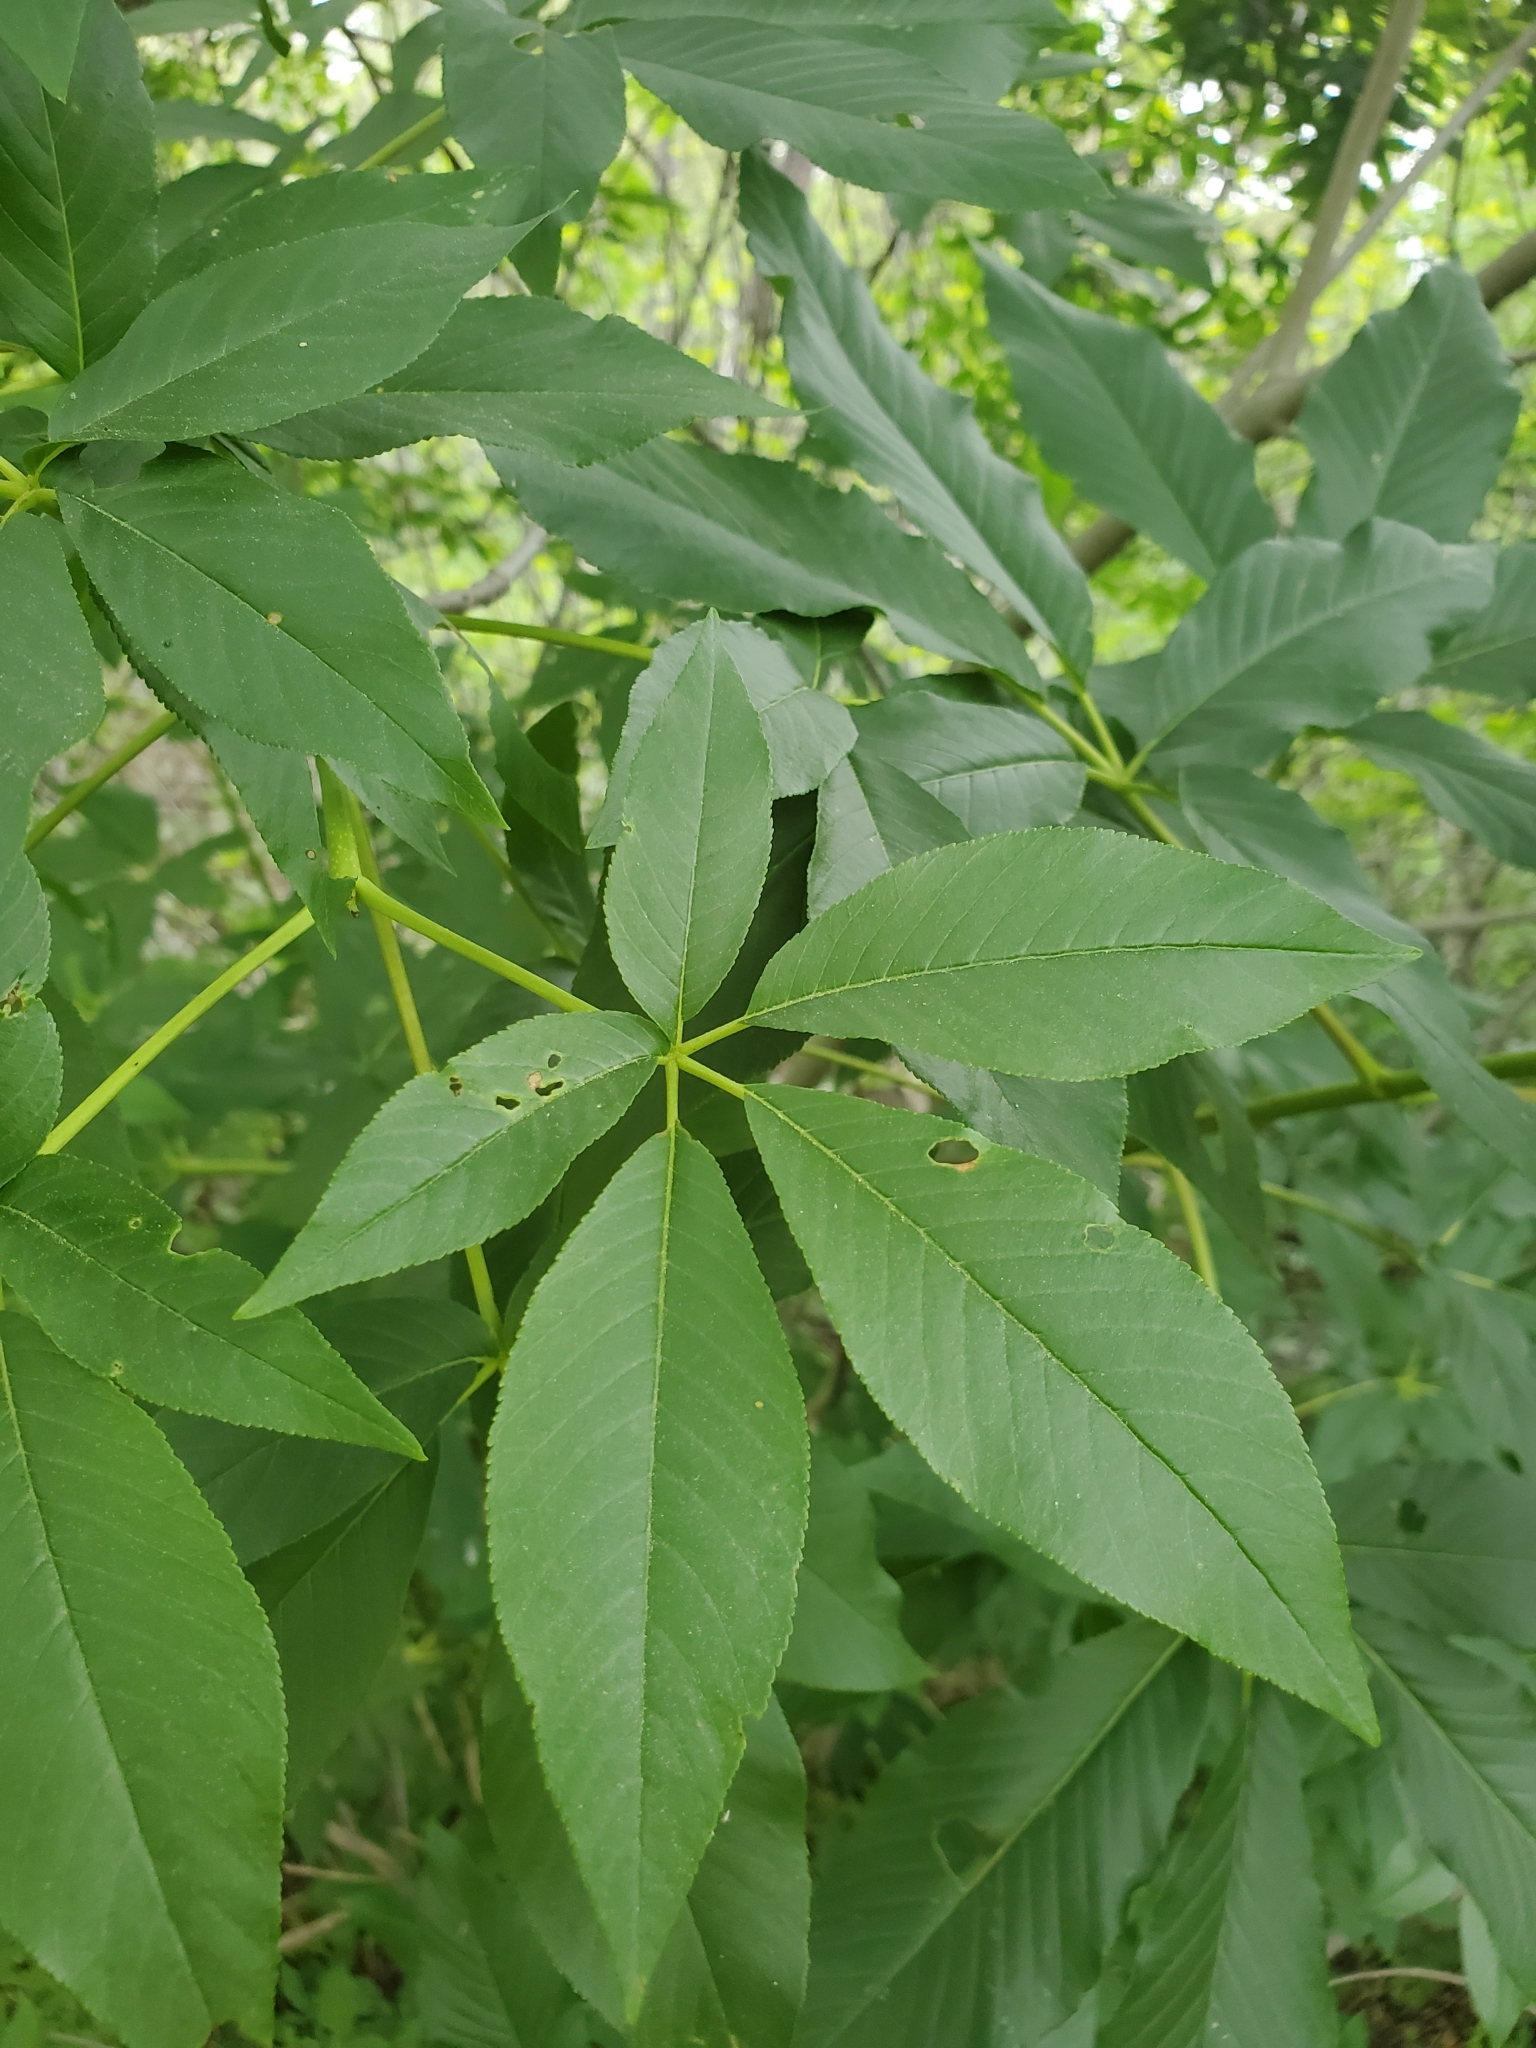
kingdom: Plantae
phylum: Tracheophyta
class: Magnoliopsida
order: Sapindales
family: Sapindaceae
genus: Aesculus
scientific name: Aesculus californica
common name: California buckeye
